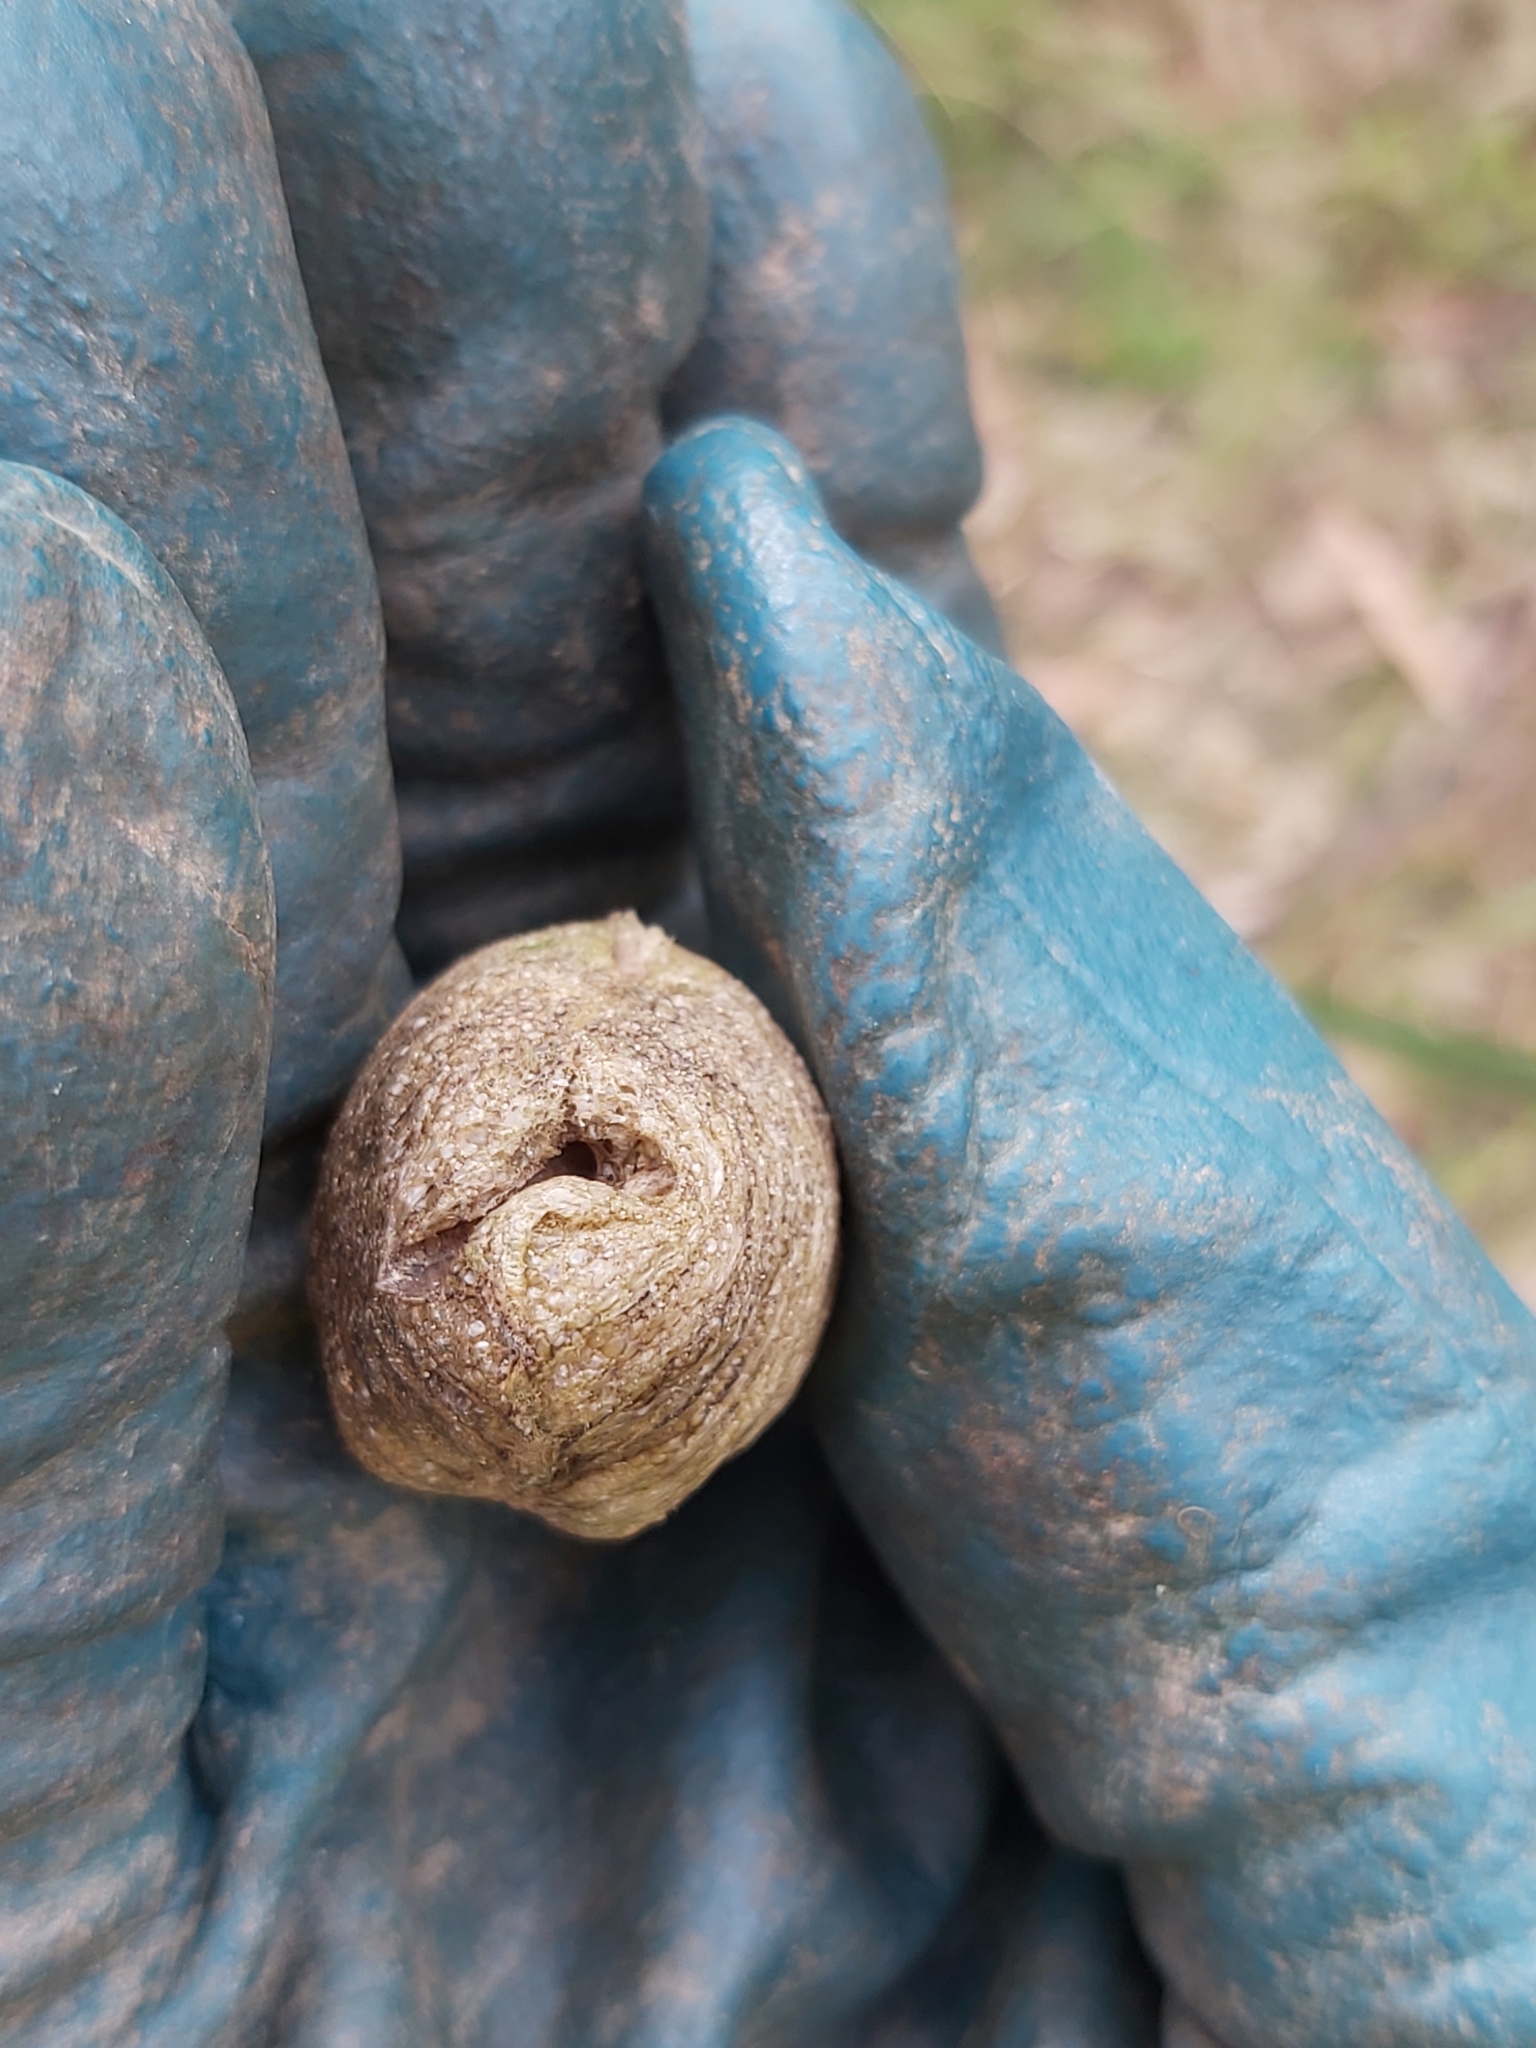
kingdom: Animalia
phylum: Arthropoda
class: Insecta
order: Mantodea
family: Mantidae
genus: Archimantis
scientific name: Archimantis latistyla
